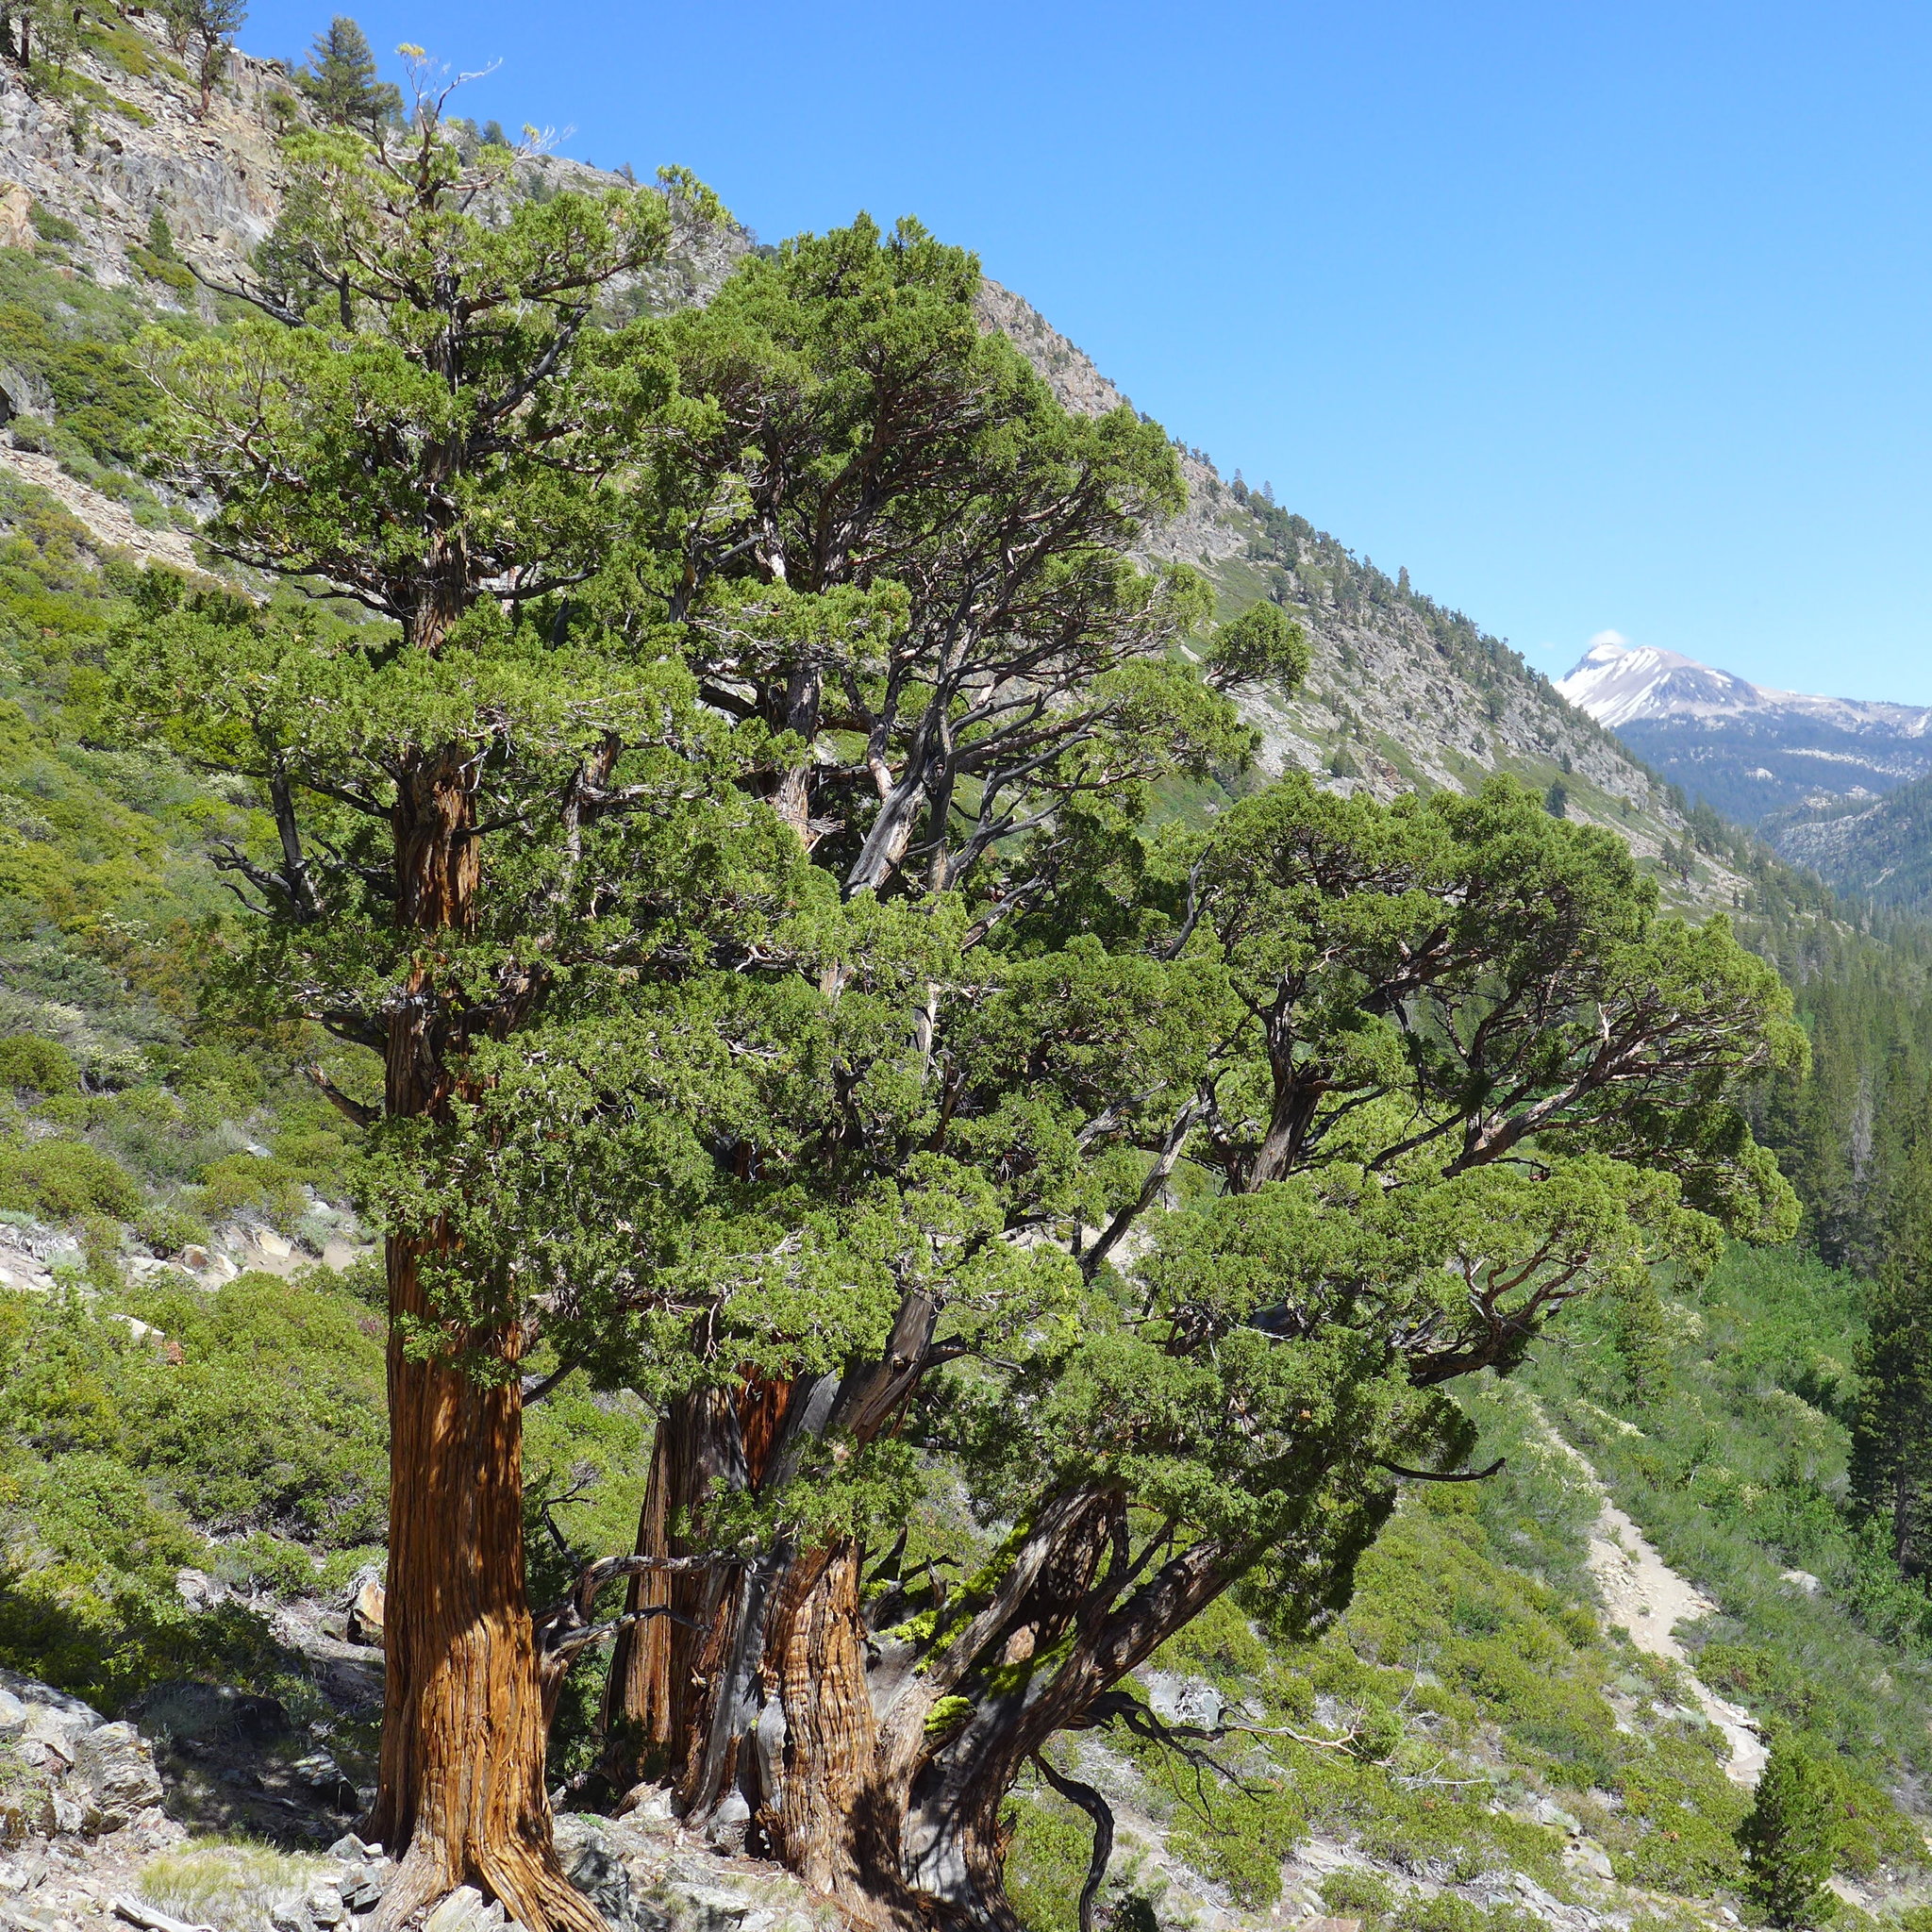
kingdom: Plantae
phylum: Tracheophyta
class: Pinopsida
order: Pinales
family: Cupressaceae
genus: Juniperus
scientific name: Juniperus occidentalis
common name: Western juniper
